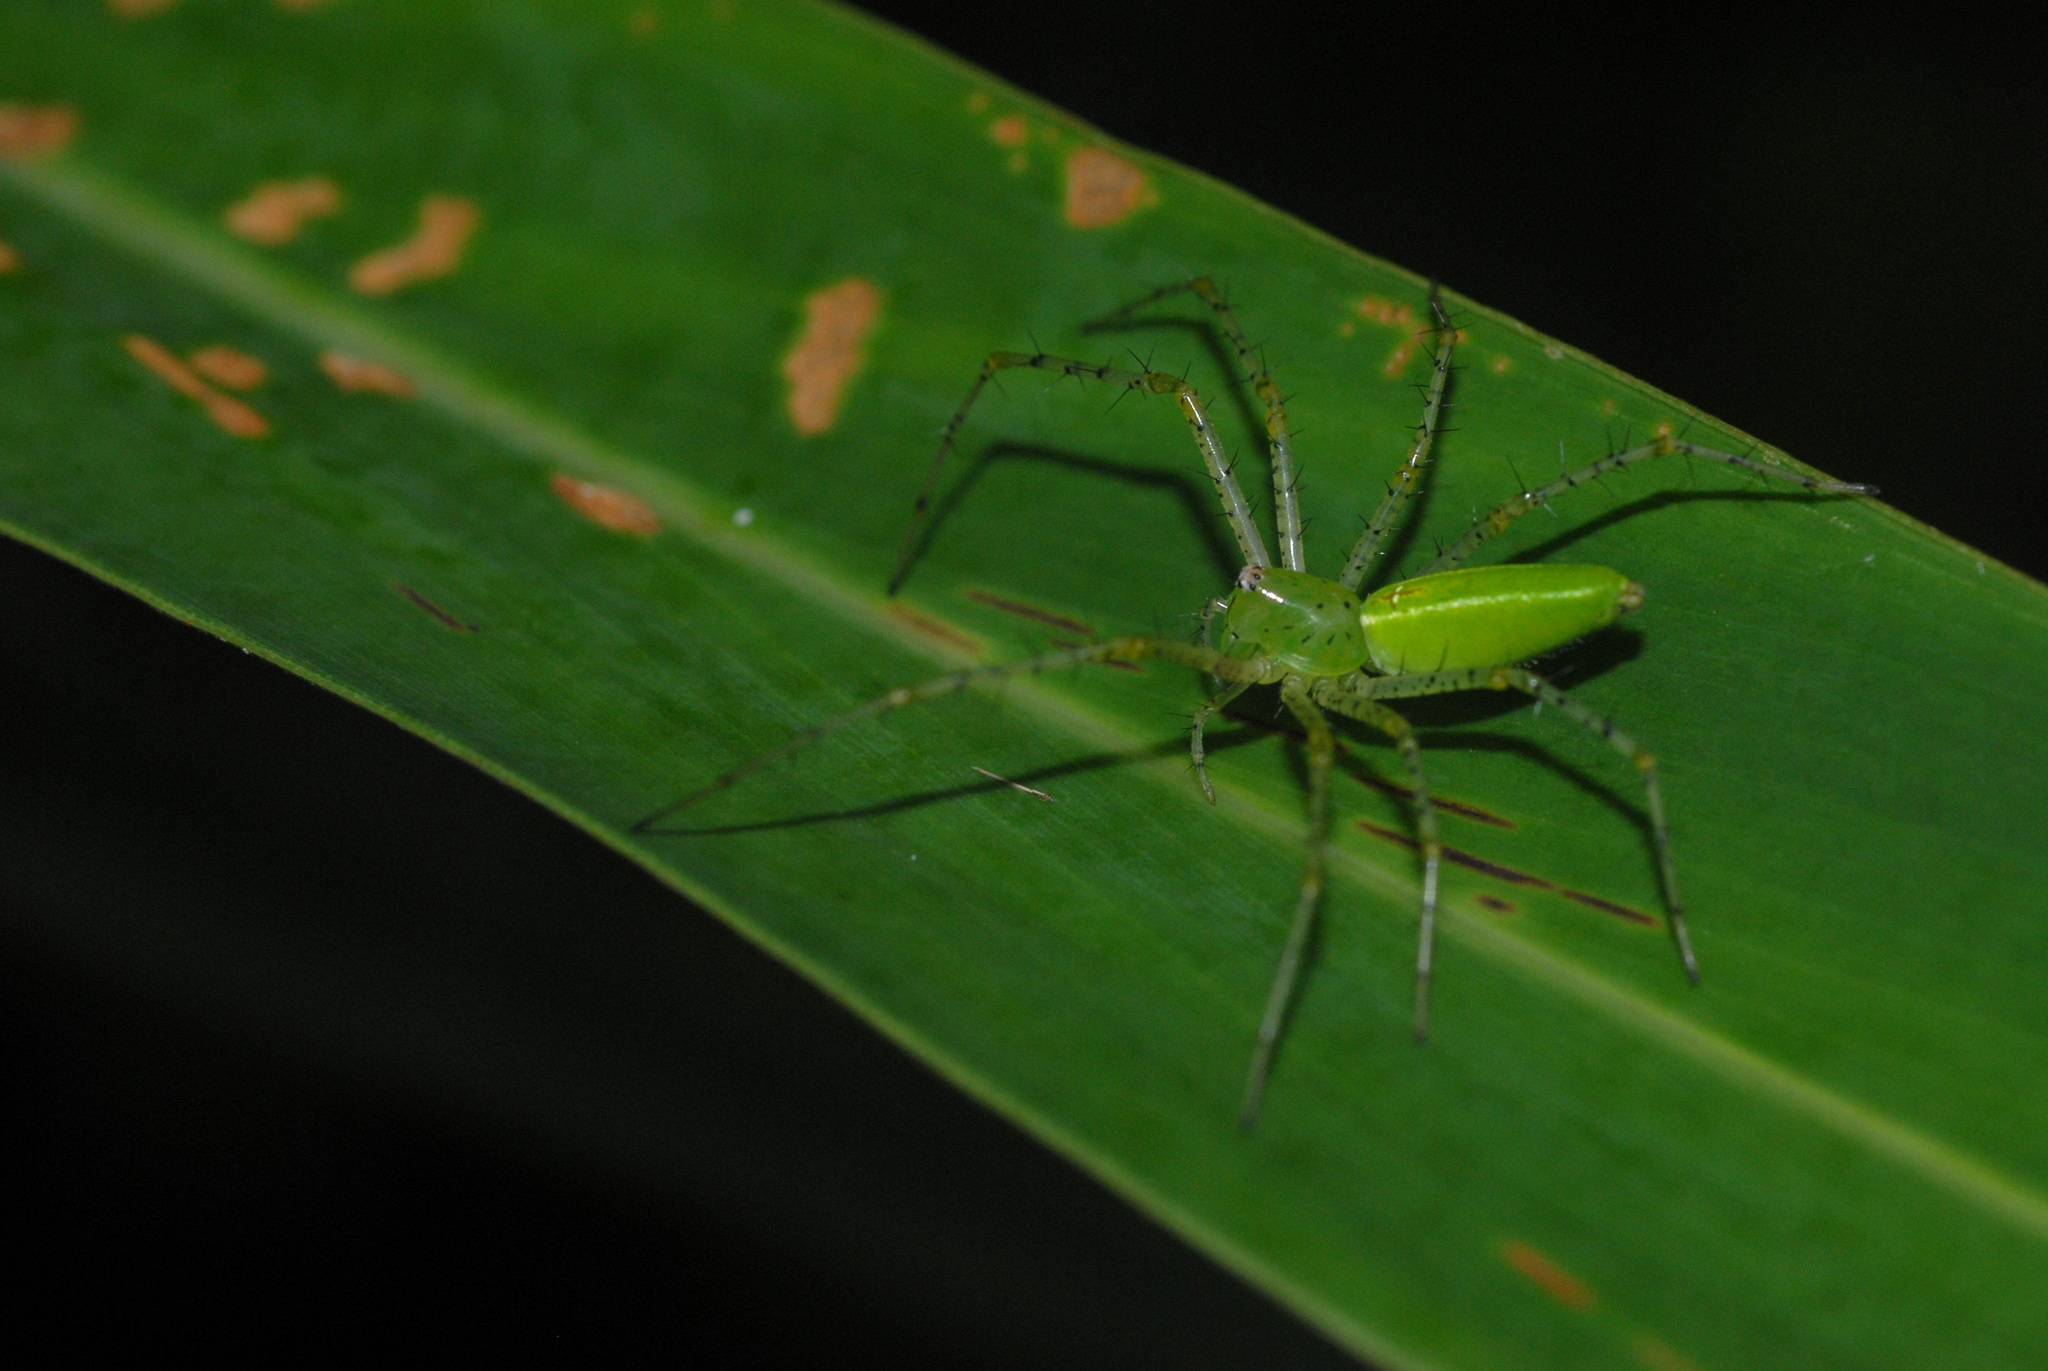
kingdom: Animalia
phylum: Arthropoda
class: Arachnida
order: Araneae
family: Oxyopidae
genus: Peucetia
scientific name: Peucetia formosensis
